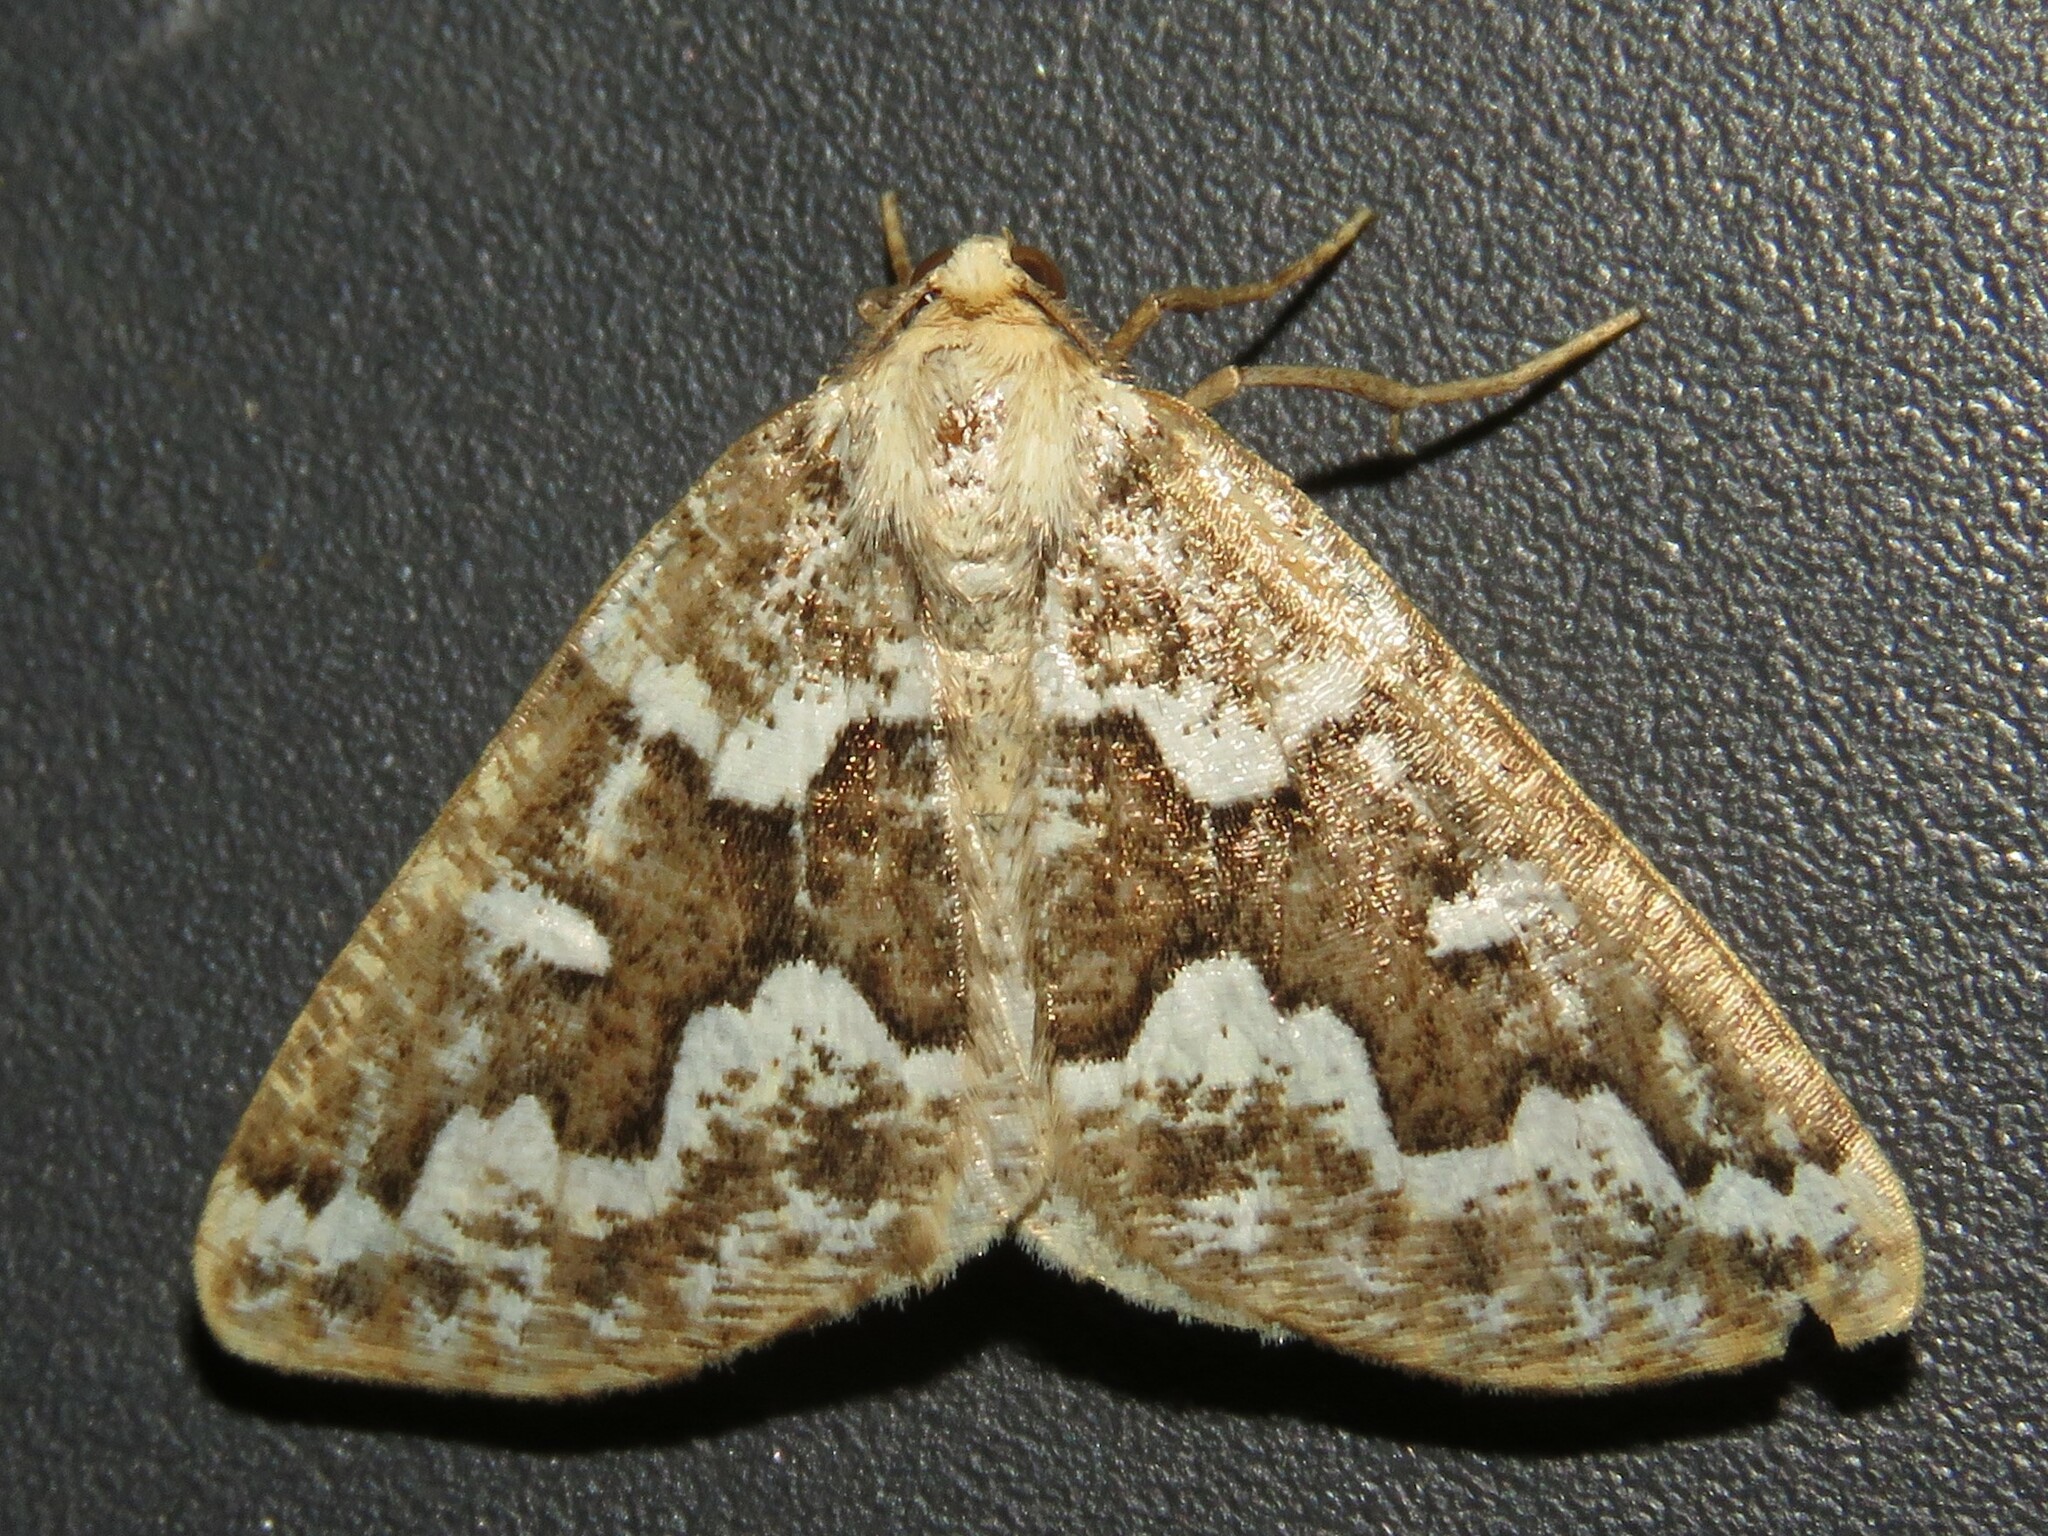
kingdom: Animalia
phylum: Arthropoda
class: Insecta
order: Lepidoptera
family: Geometridae
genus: Caripeta
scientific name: Caripeta divisata
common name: Gray spruce looper
